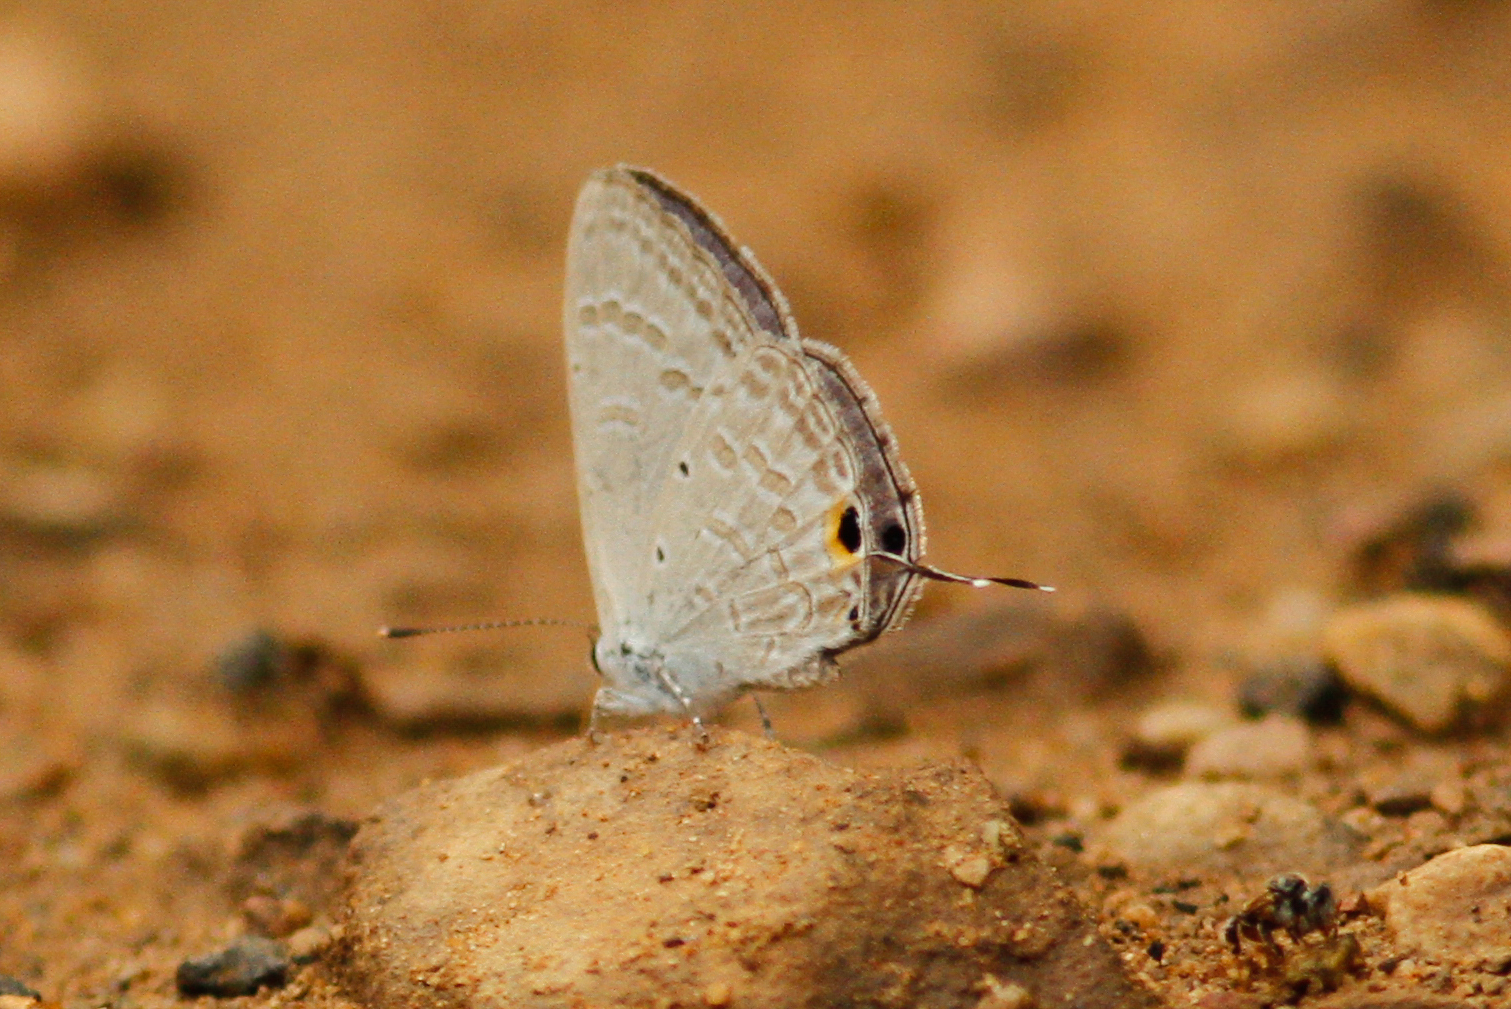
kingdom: Animalia
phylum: Arthropoda
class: Insecta
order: Lepidoptera
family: Lycaenidae
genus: Catochrysops
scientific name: Catochrysops strabo
